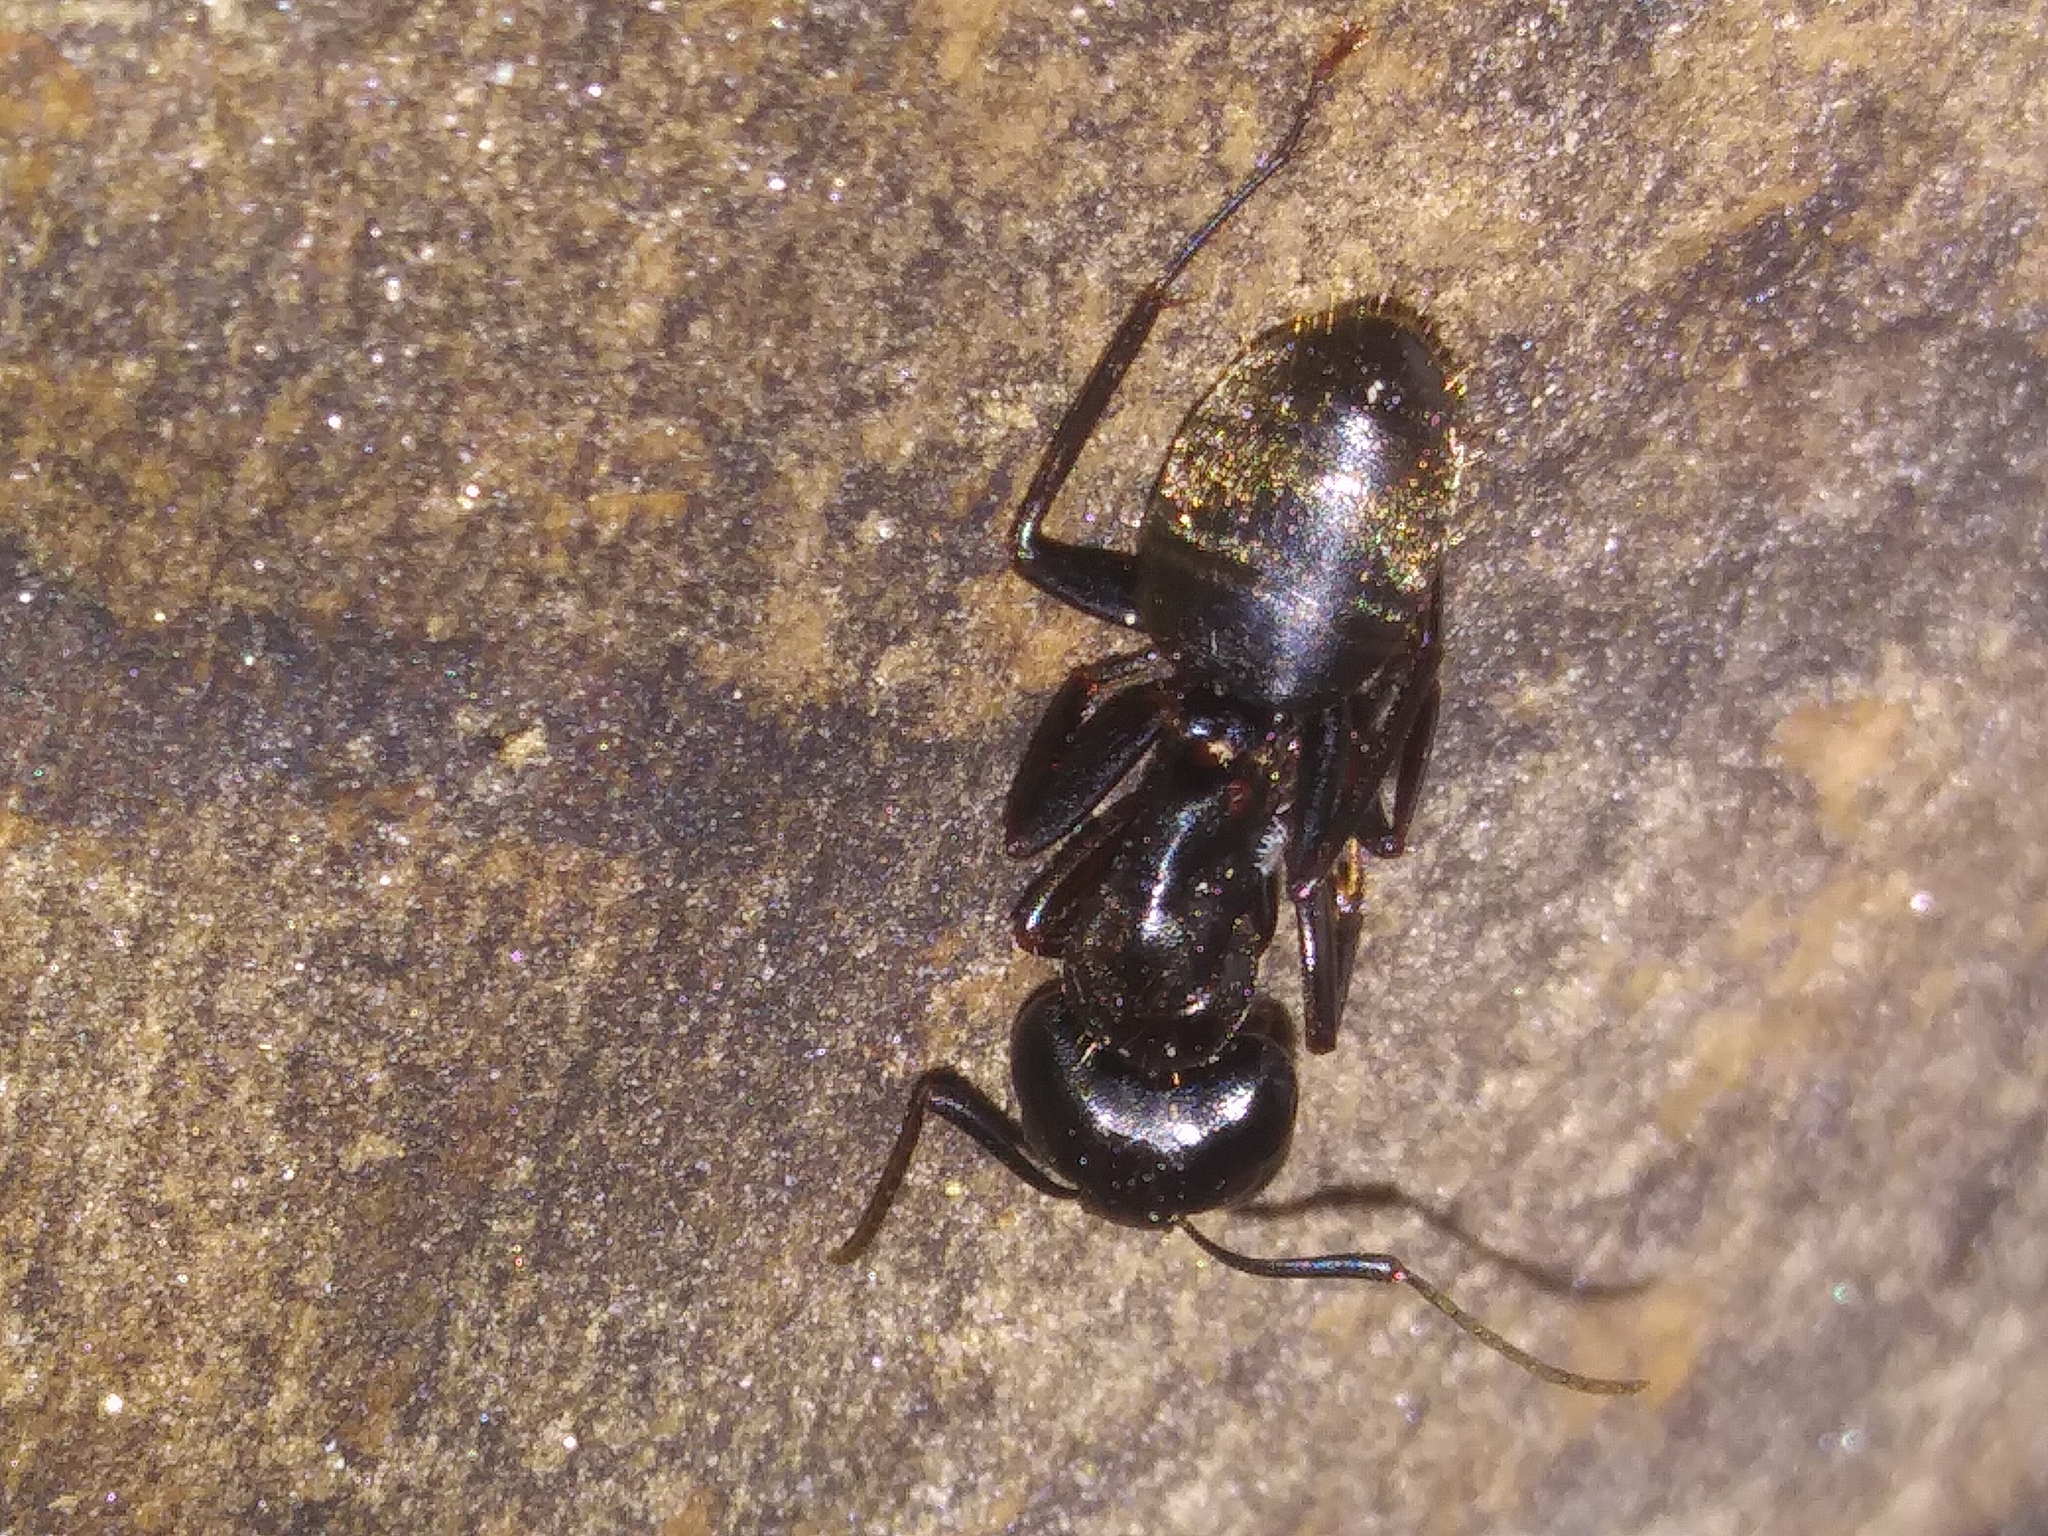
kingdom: Animalia
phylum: Arthropoda
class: Insecta
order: Hymenoptera
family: Formicidae
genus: Camponotus
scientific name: Camponotus pennsylvanicus
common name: Black carpenter ant
